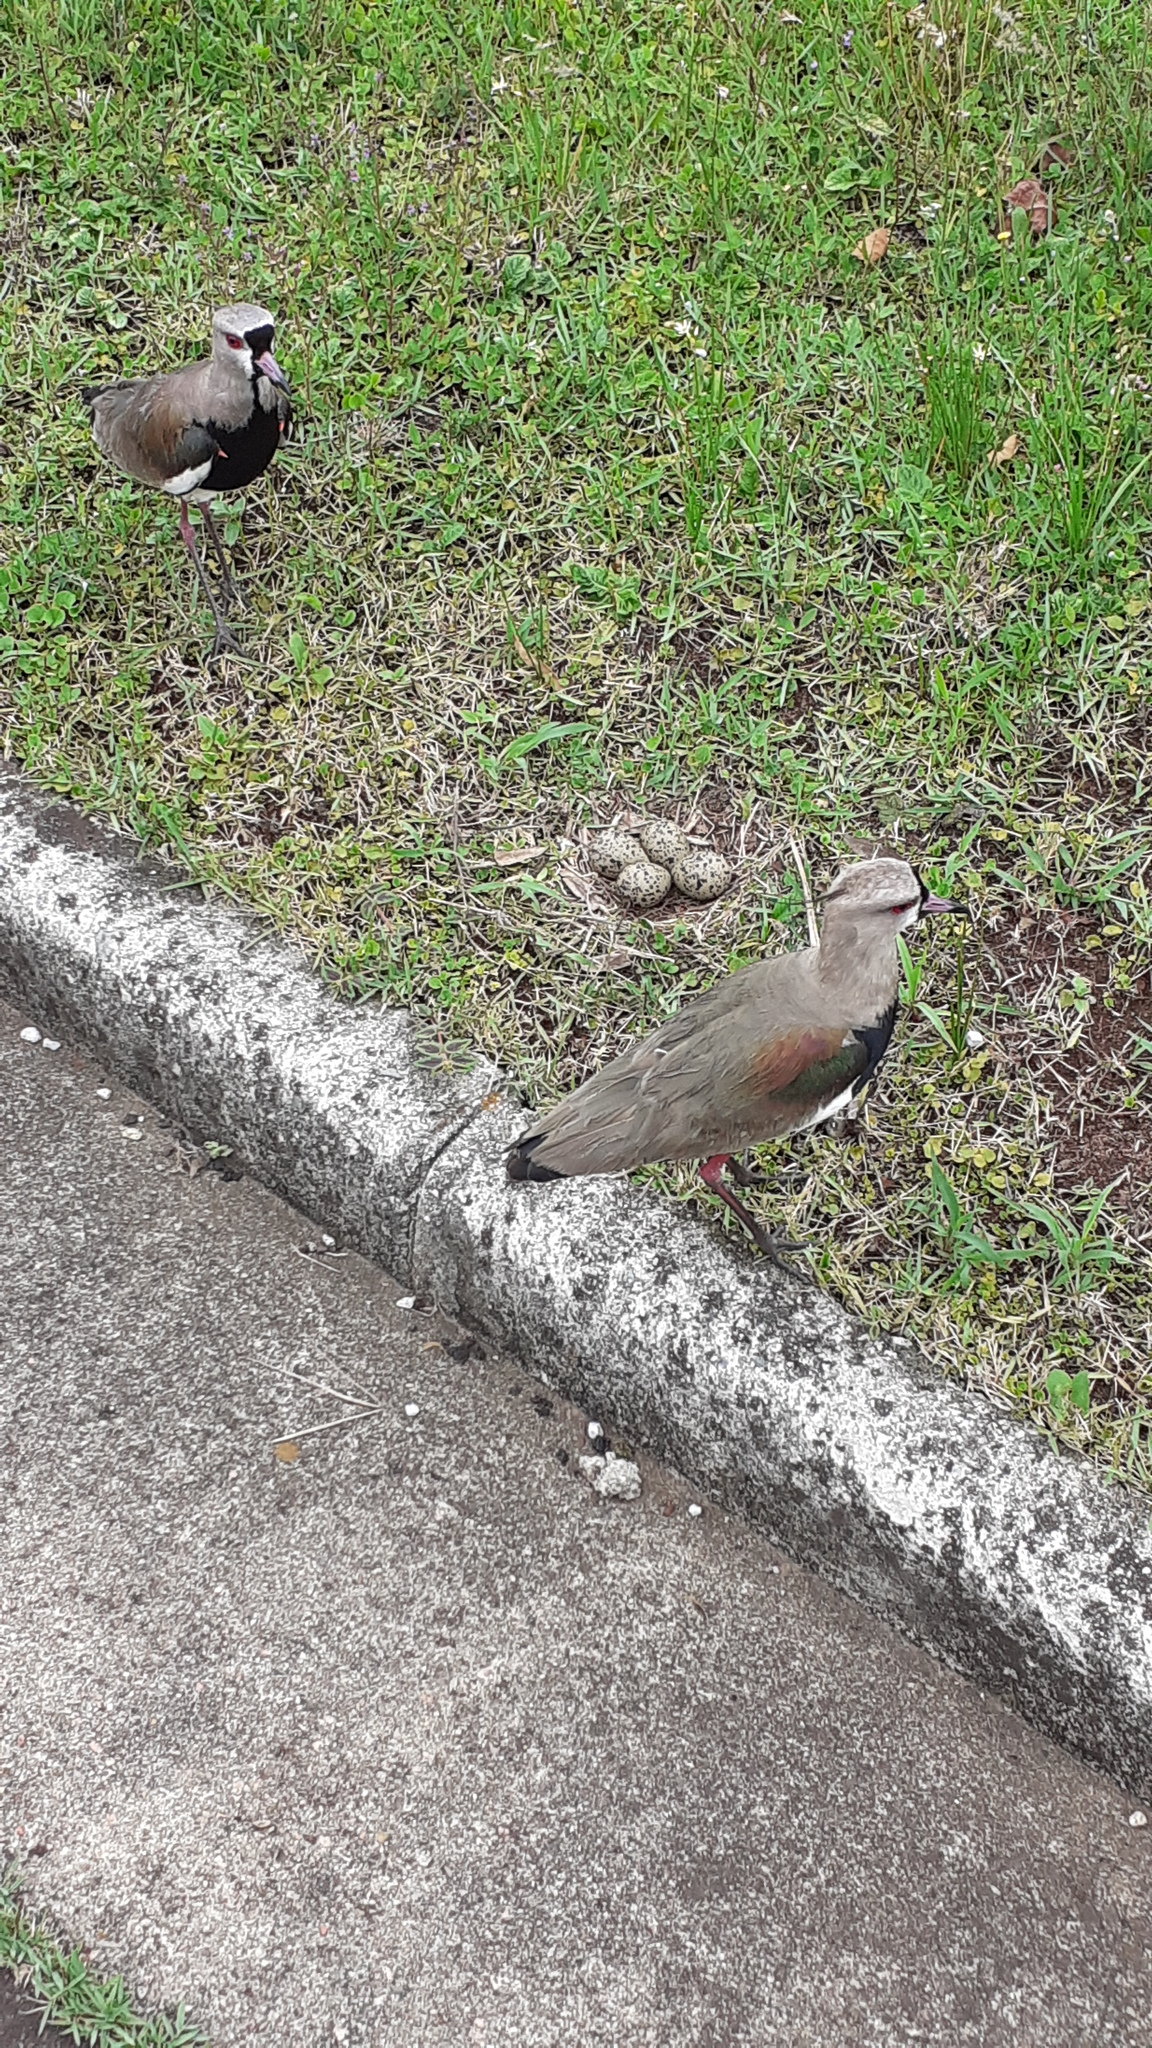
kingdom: Animalia
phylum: Chordata
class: Aves
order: Charadriiformes
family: Charadriidae
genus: Vanellus
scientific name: Vanellus chilensis
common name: Southern lapwing
